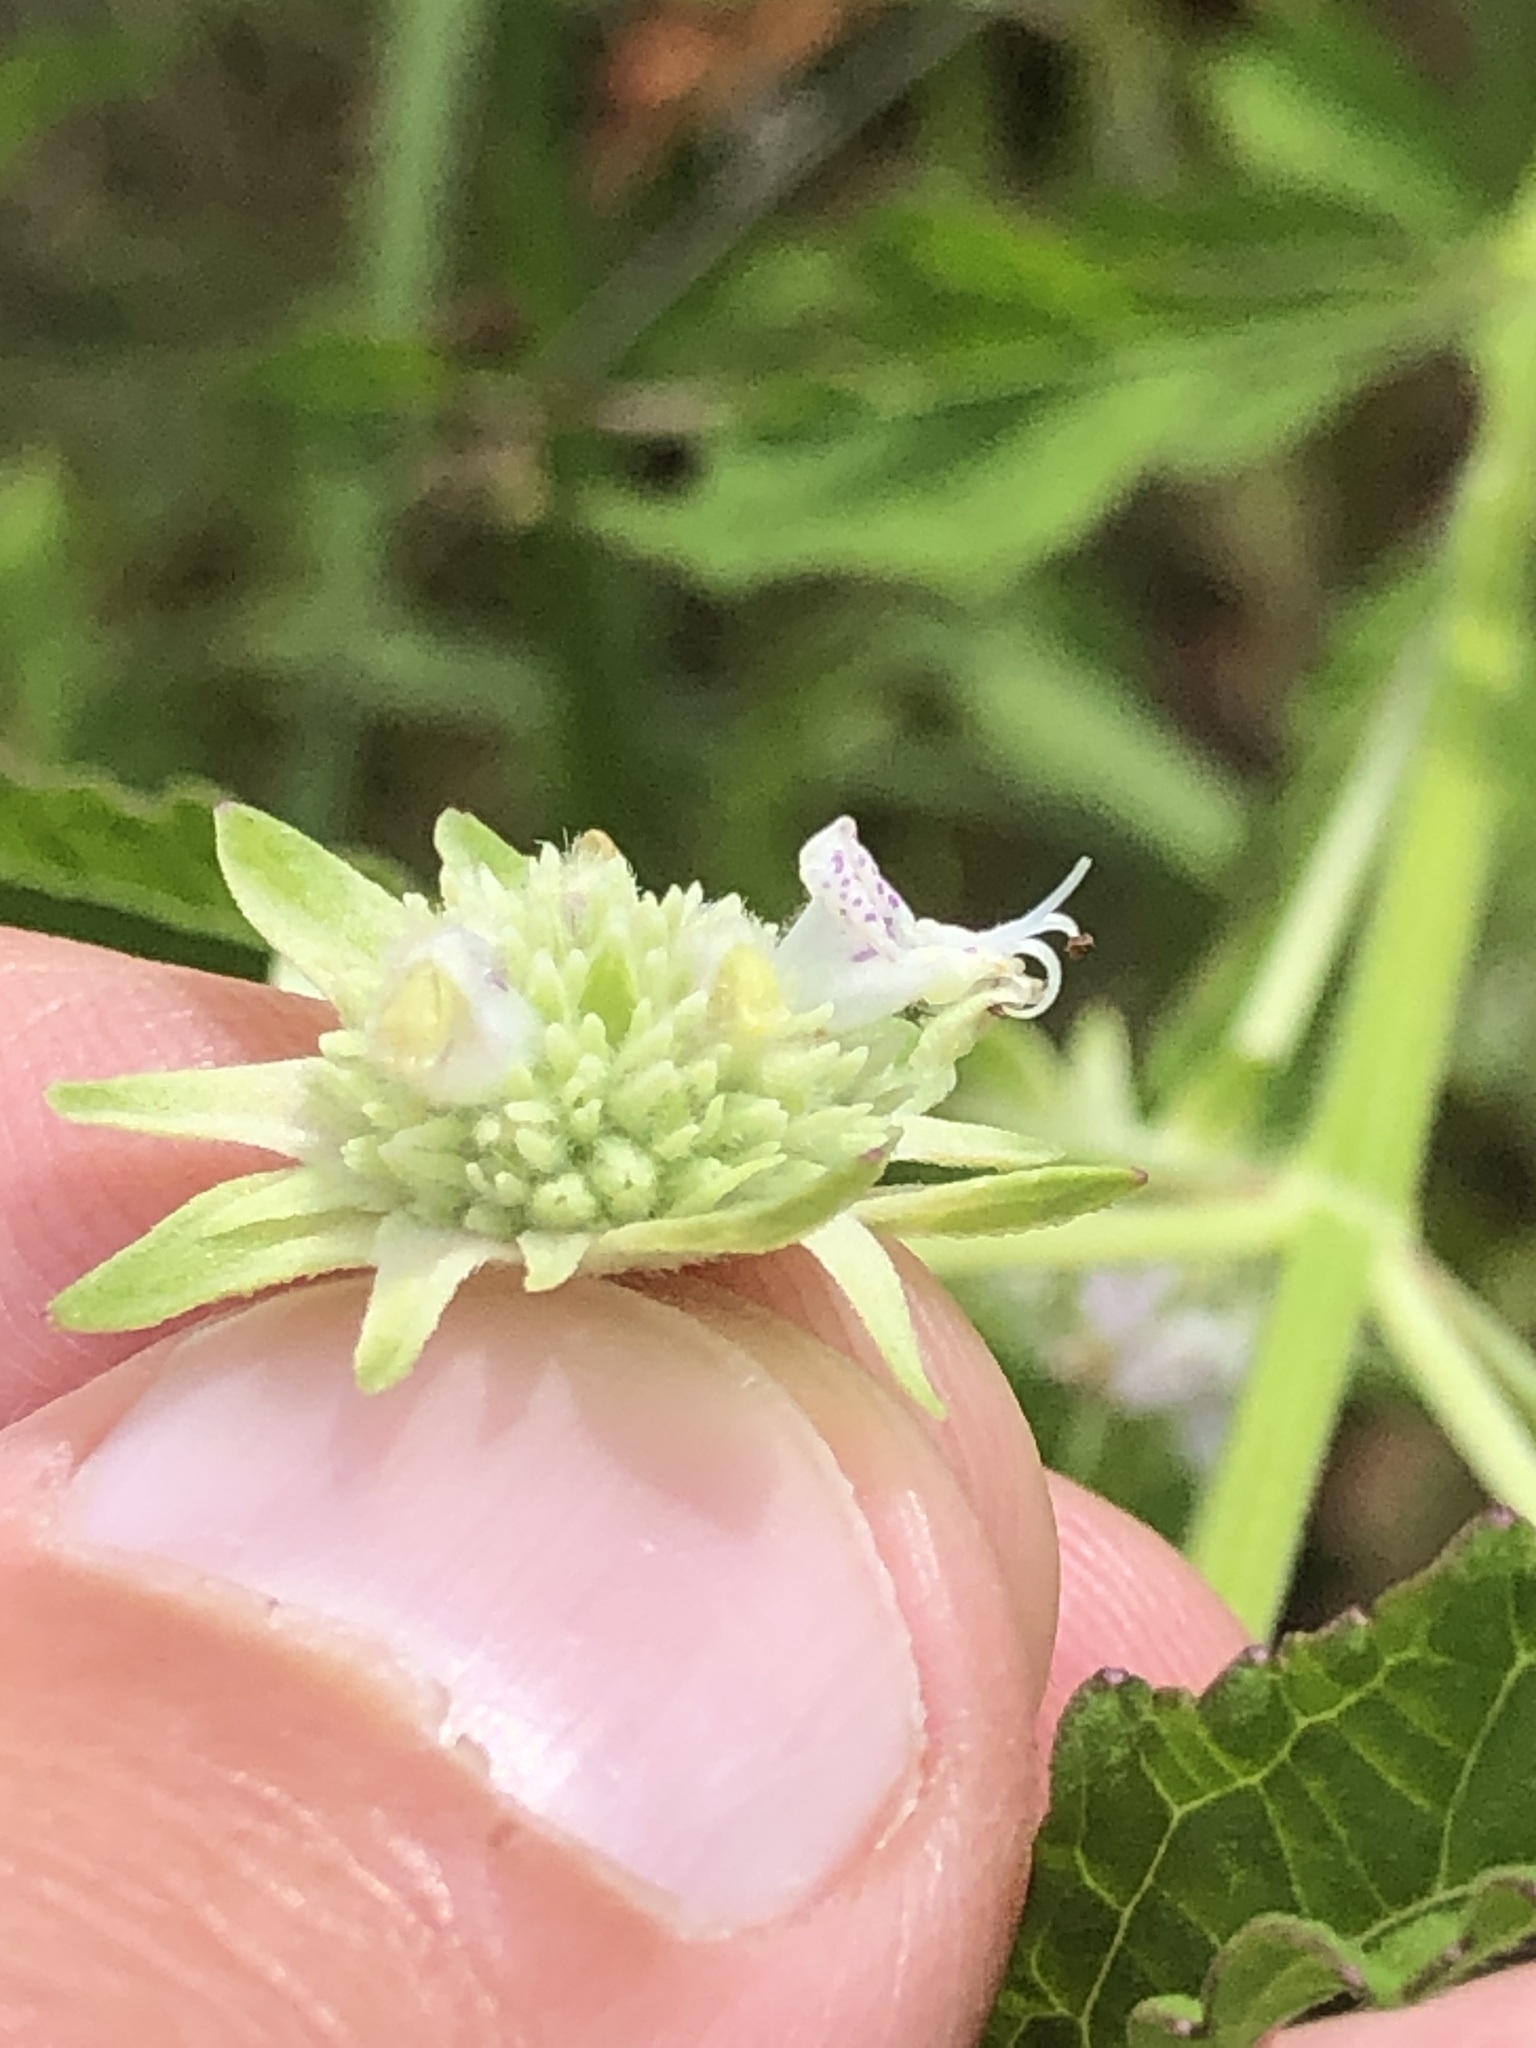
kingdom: Plantae
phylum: Tracheophyta
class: Magnoliopsida
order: Lamiales
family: Lamiaceae
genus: Hyptis
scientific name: Hyptis alata
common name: Cluster bush-mint
